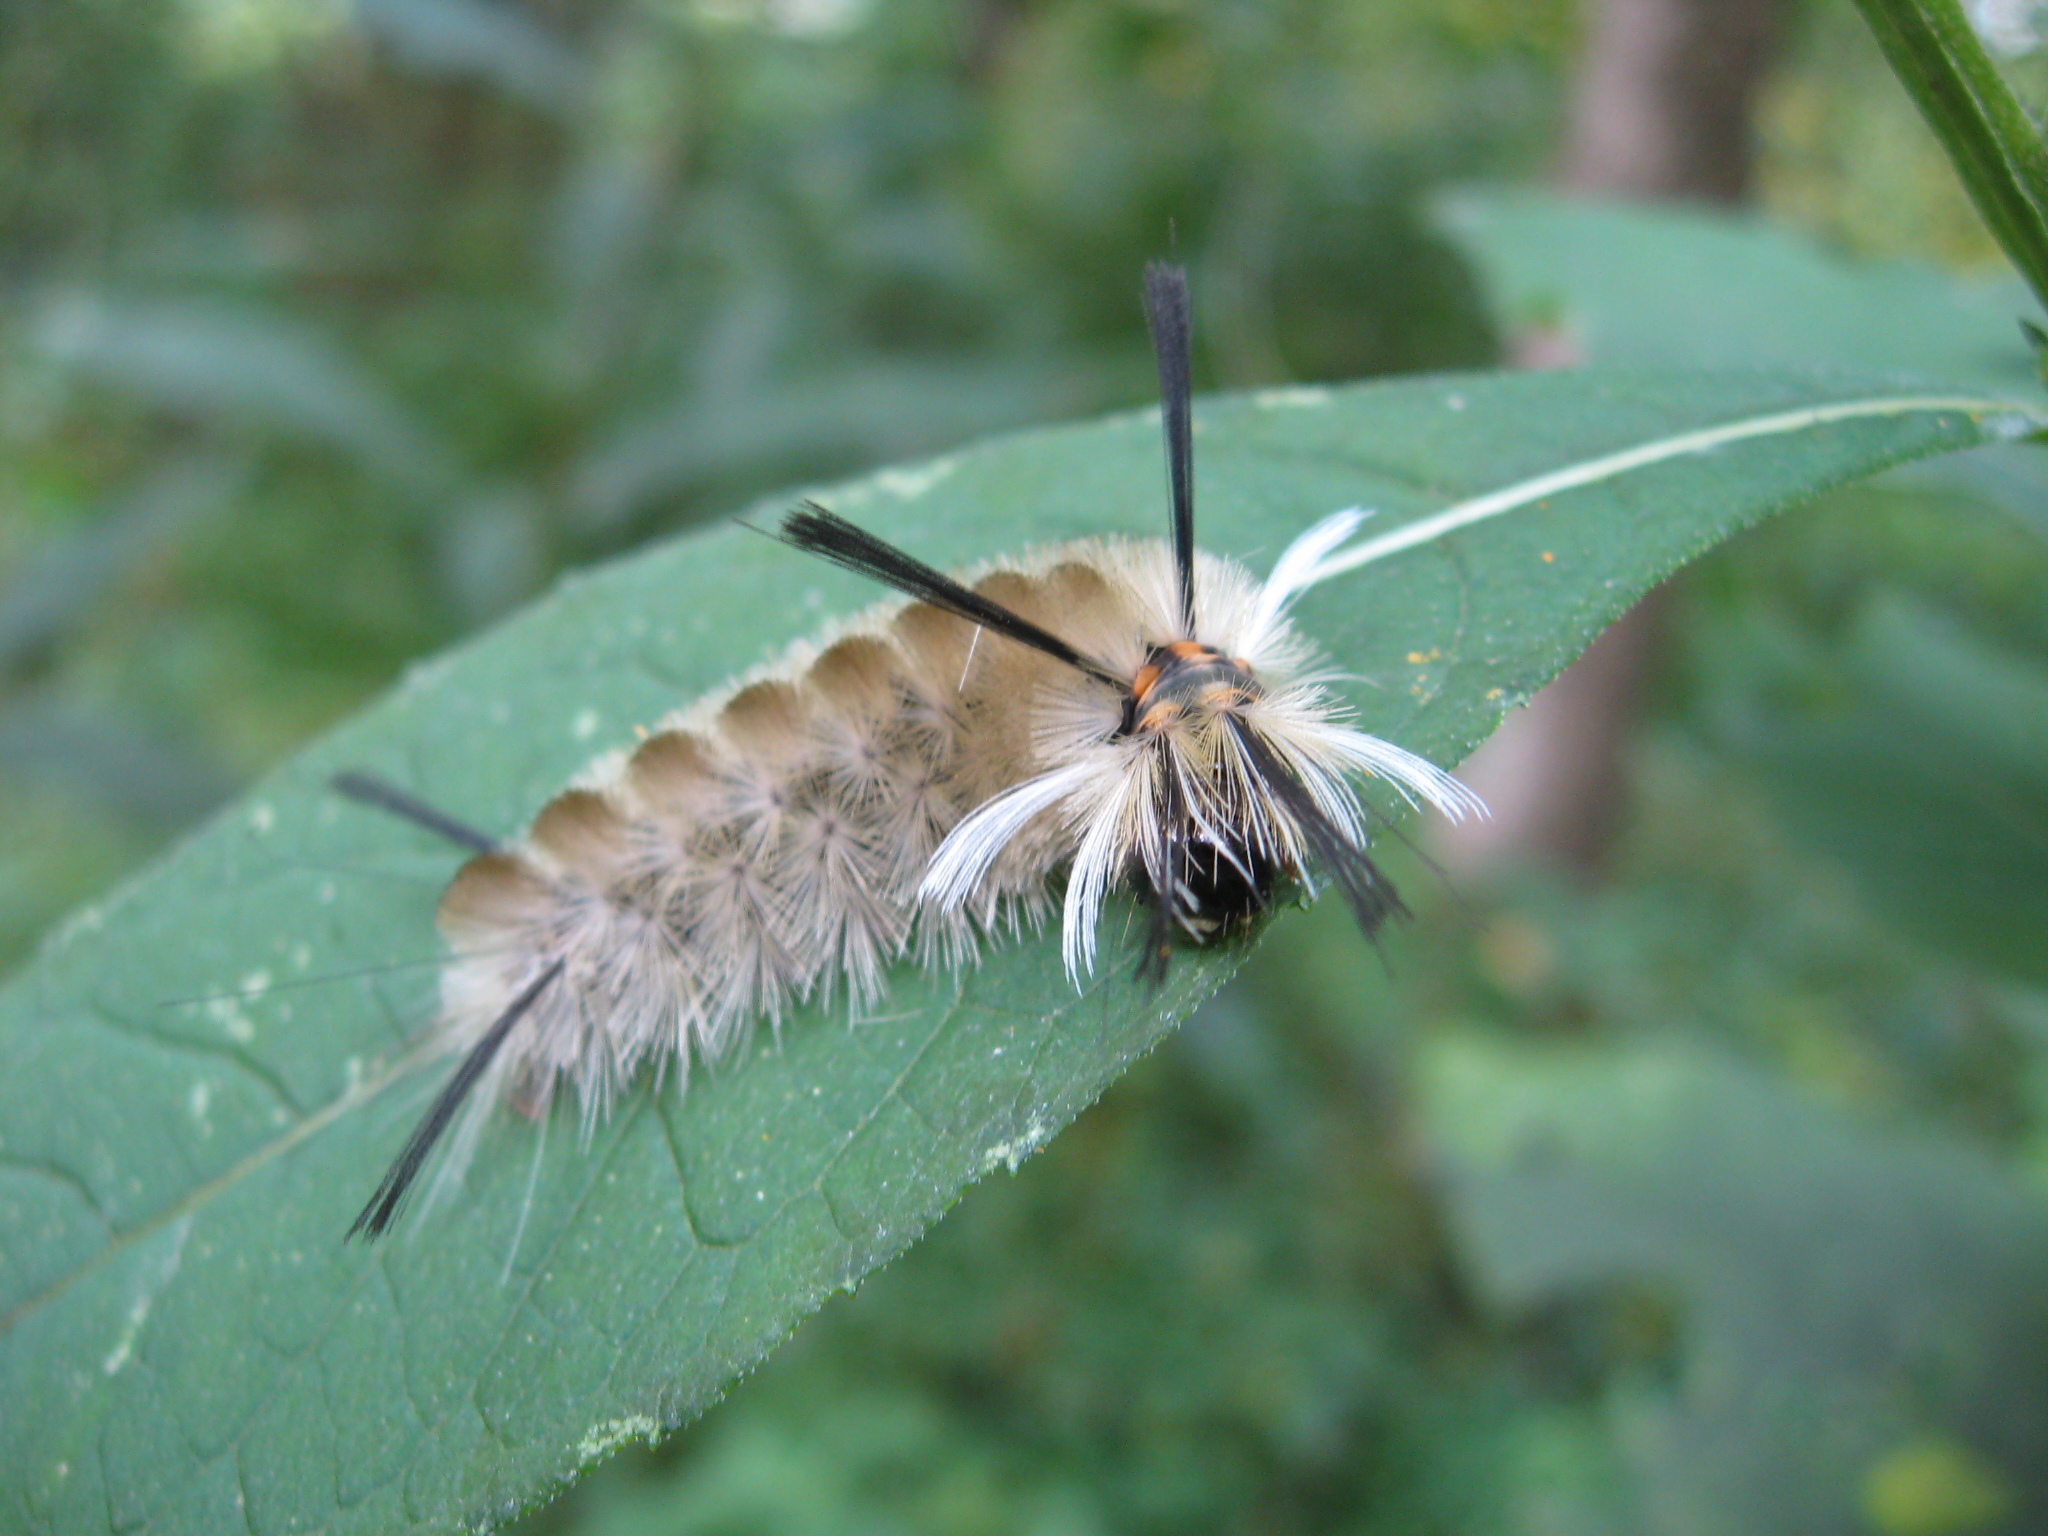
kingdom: Animalia
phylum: Arthropoda
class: Insecta
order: Lepidoptera
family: Erebidae
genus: Halysidota
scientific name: Halysidota tessellaris
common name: Banded tussock moth
